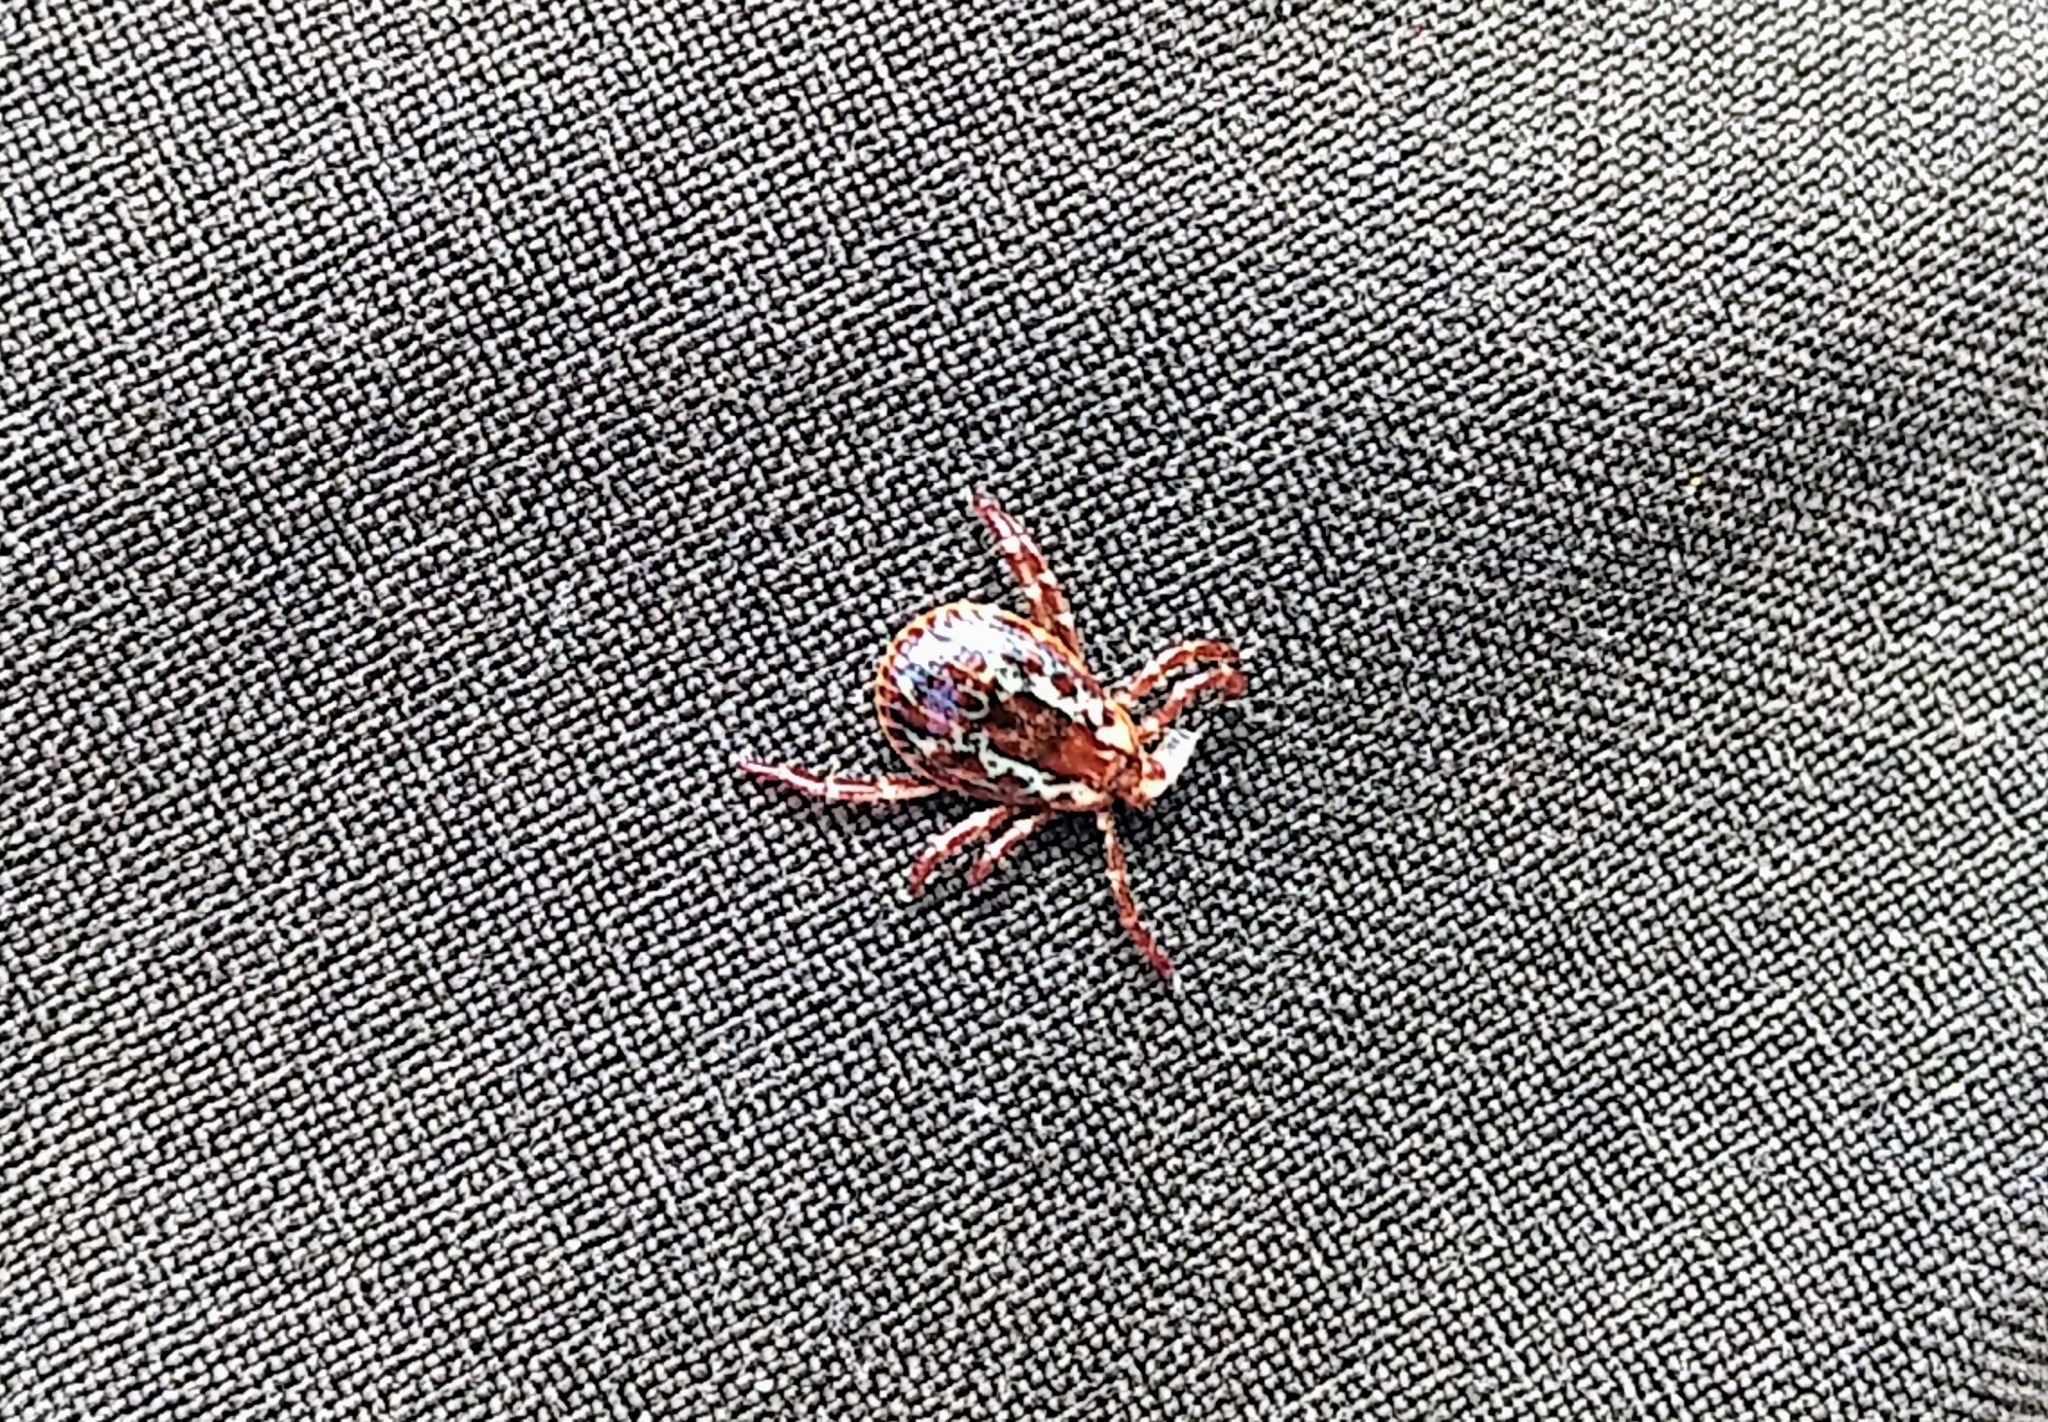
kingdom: Animalia
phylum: Arthropoda
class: Arachnida
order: Ixodida
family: Ixodidae
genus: Dermacentor
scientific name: Dermacentor variabilis
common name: American dog tick
